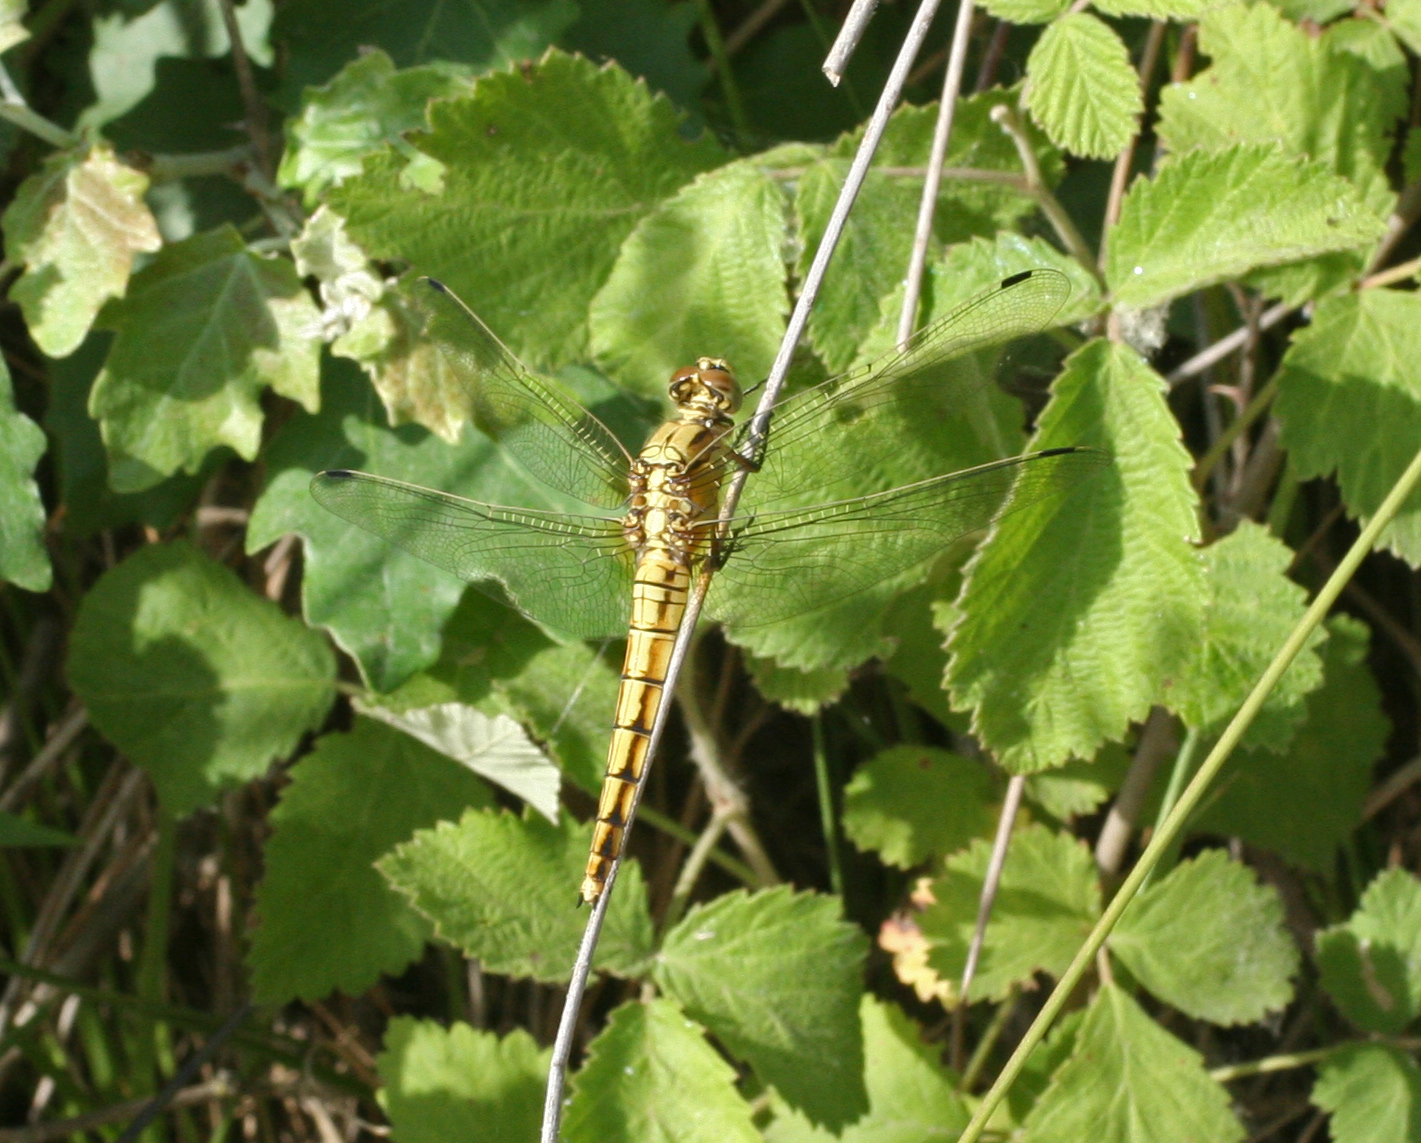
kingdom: Animalia
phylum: Arthropoda
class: Insecta
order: Odonata
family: Libellulidae
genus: Orthetrum
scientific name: Orthetrum cancellatum
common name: Black-tailed skimmer
